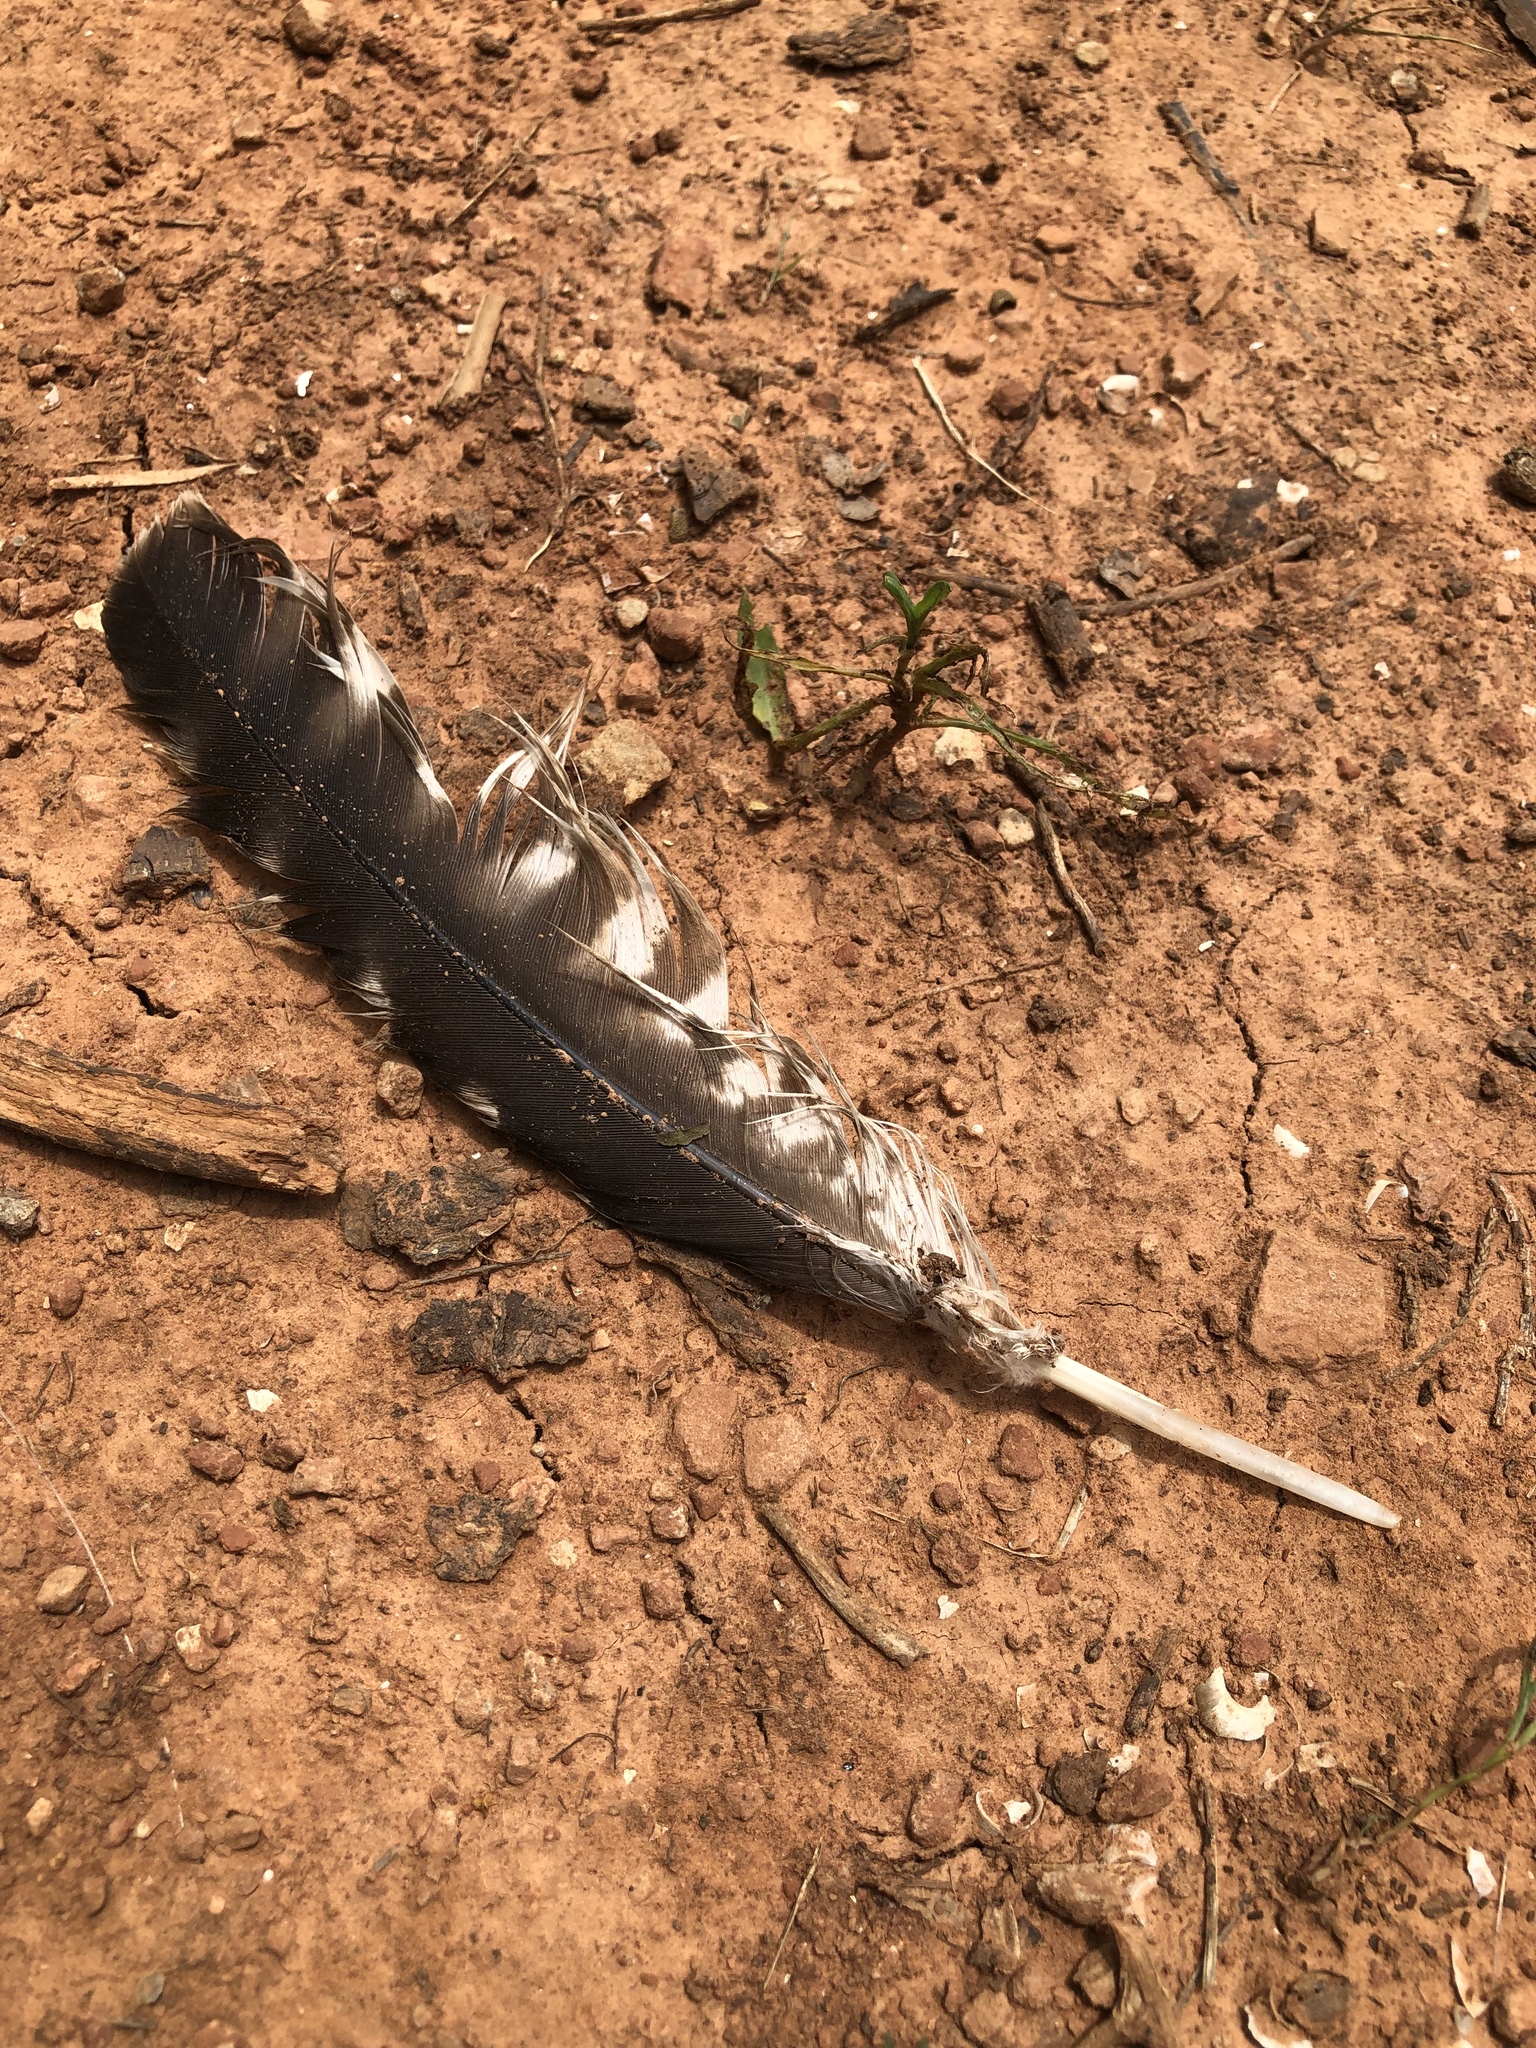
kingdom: Animalia
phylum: Chordata
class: Aves
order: Accipitriformes
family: Accipitridae
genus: Buteo
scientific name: Buteo lineatus
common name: Red-shouldered hawk
